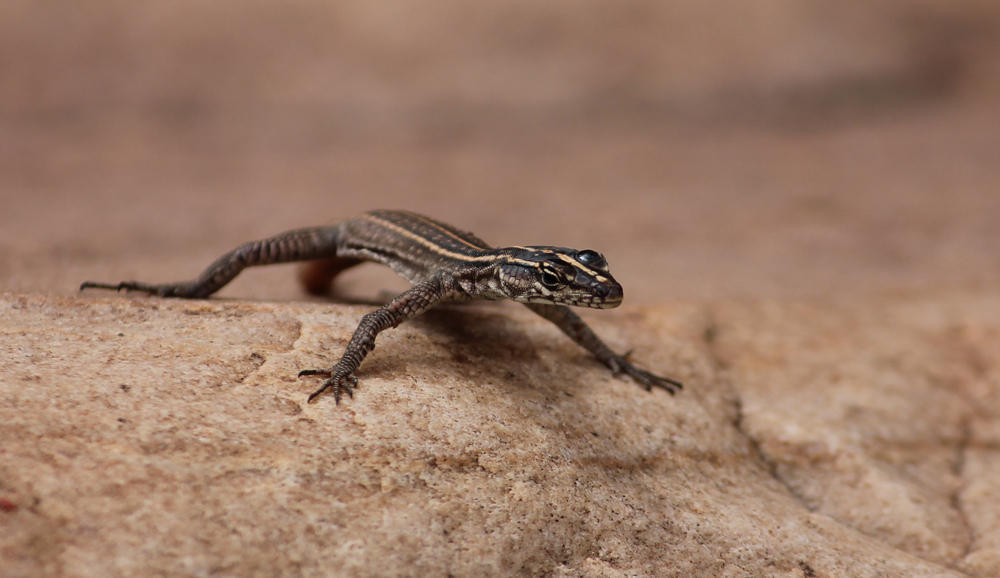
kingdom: Animalia
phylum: Chordata
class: Squamata
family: Cordylidae
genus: Platysaurus
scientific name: Platysaurus relictus
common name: Soutpansberg flat lizard
